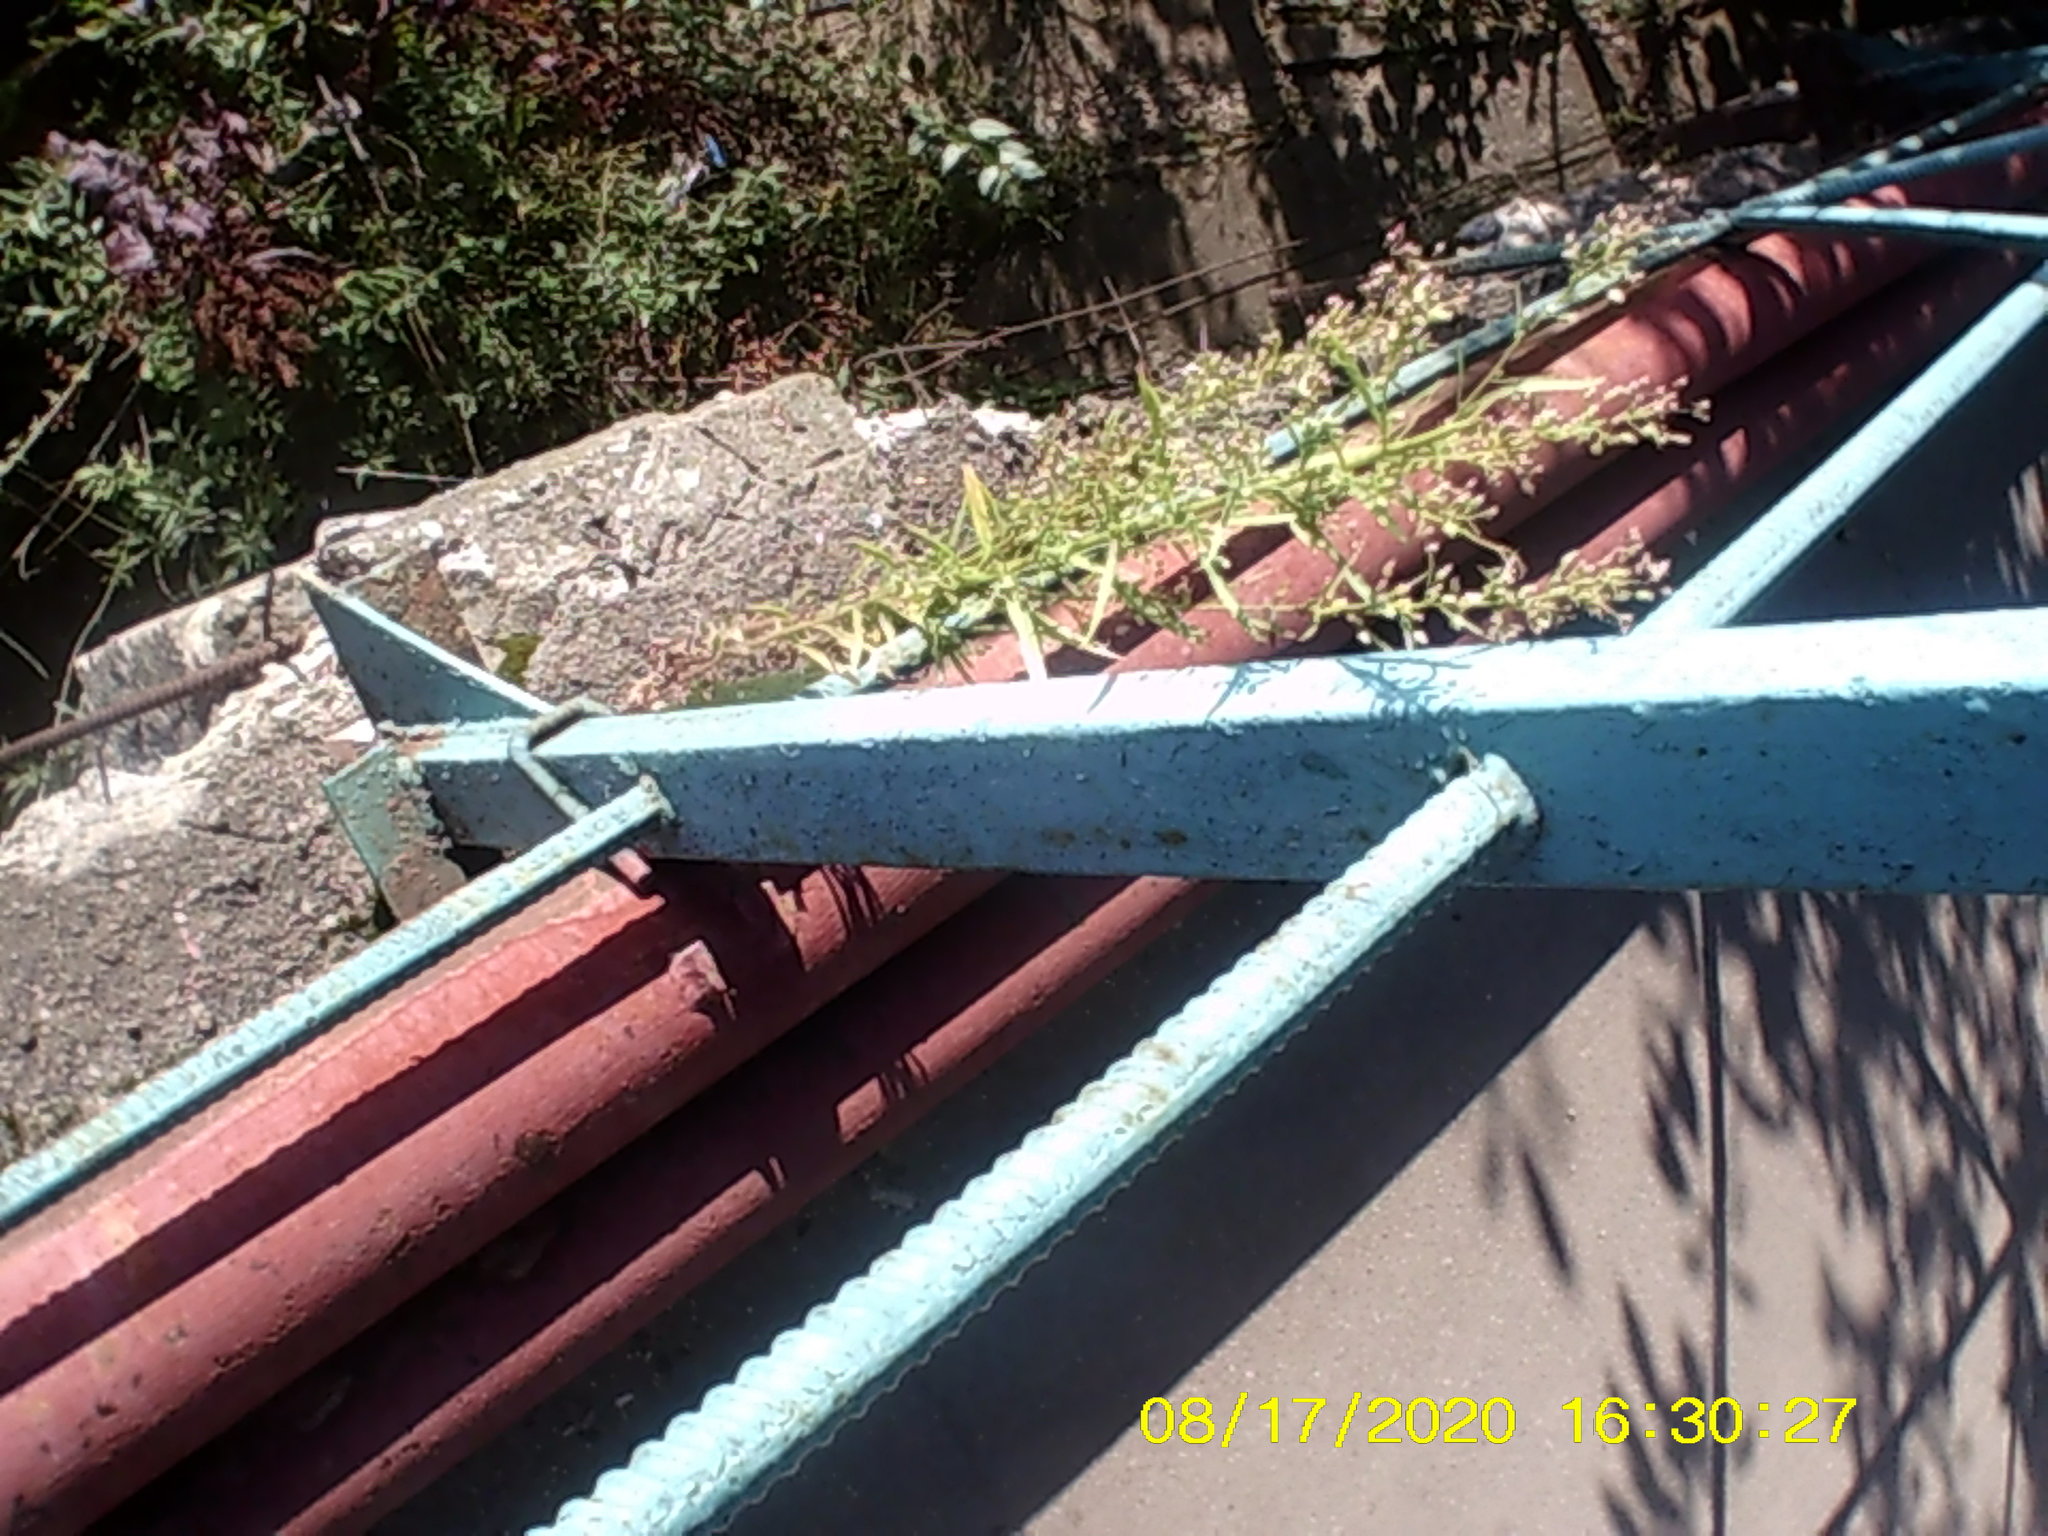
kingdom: Plantae
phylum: Tracheophyta
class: Magnoliopsida
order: Asterales
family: Asteraceae
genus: Erigeron
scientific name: Erigeron canadensis
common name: Canadian fleabane
